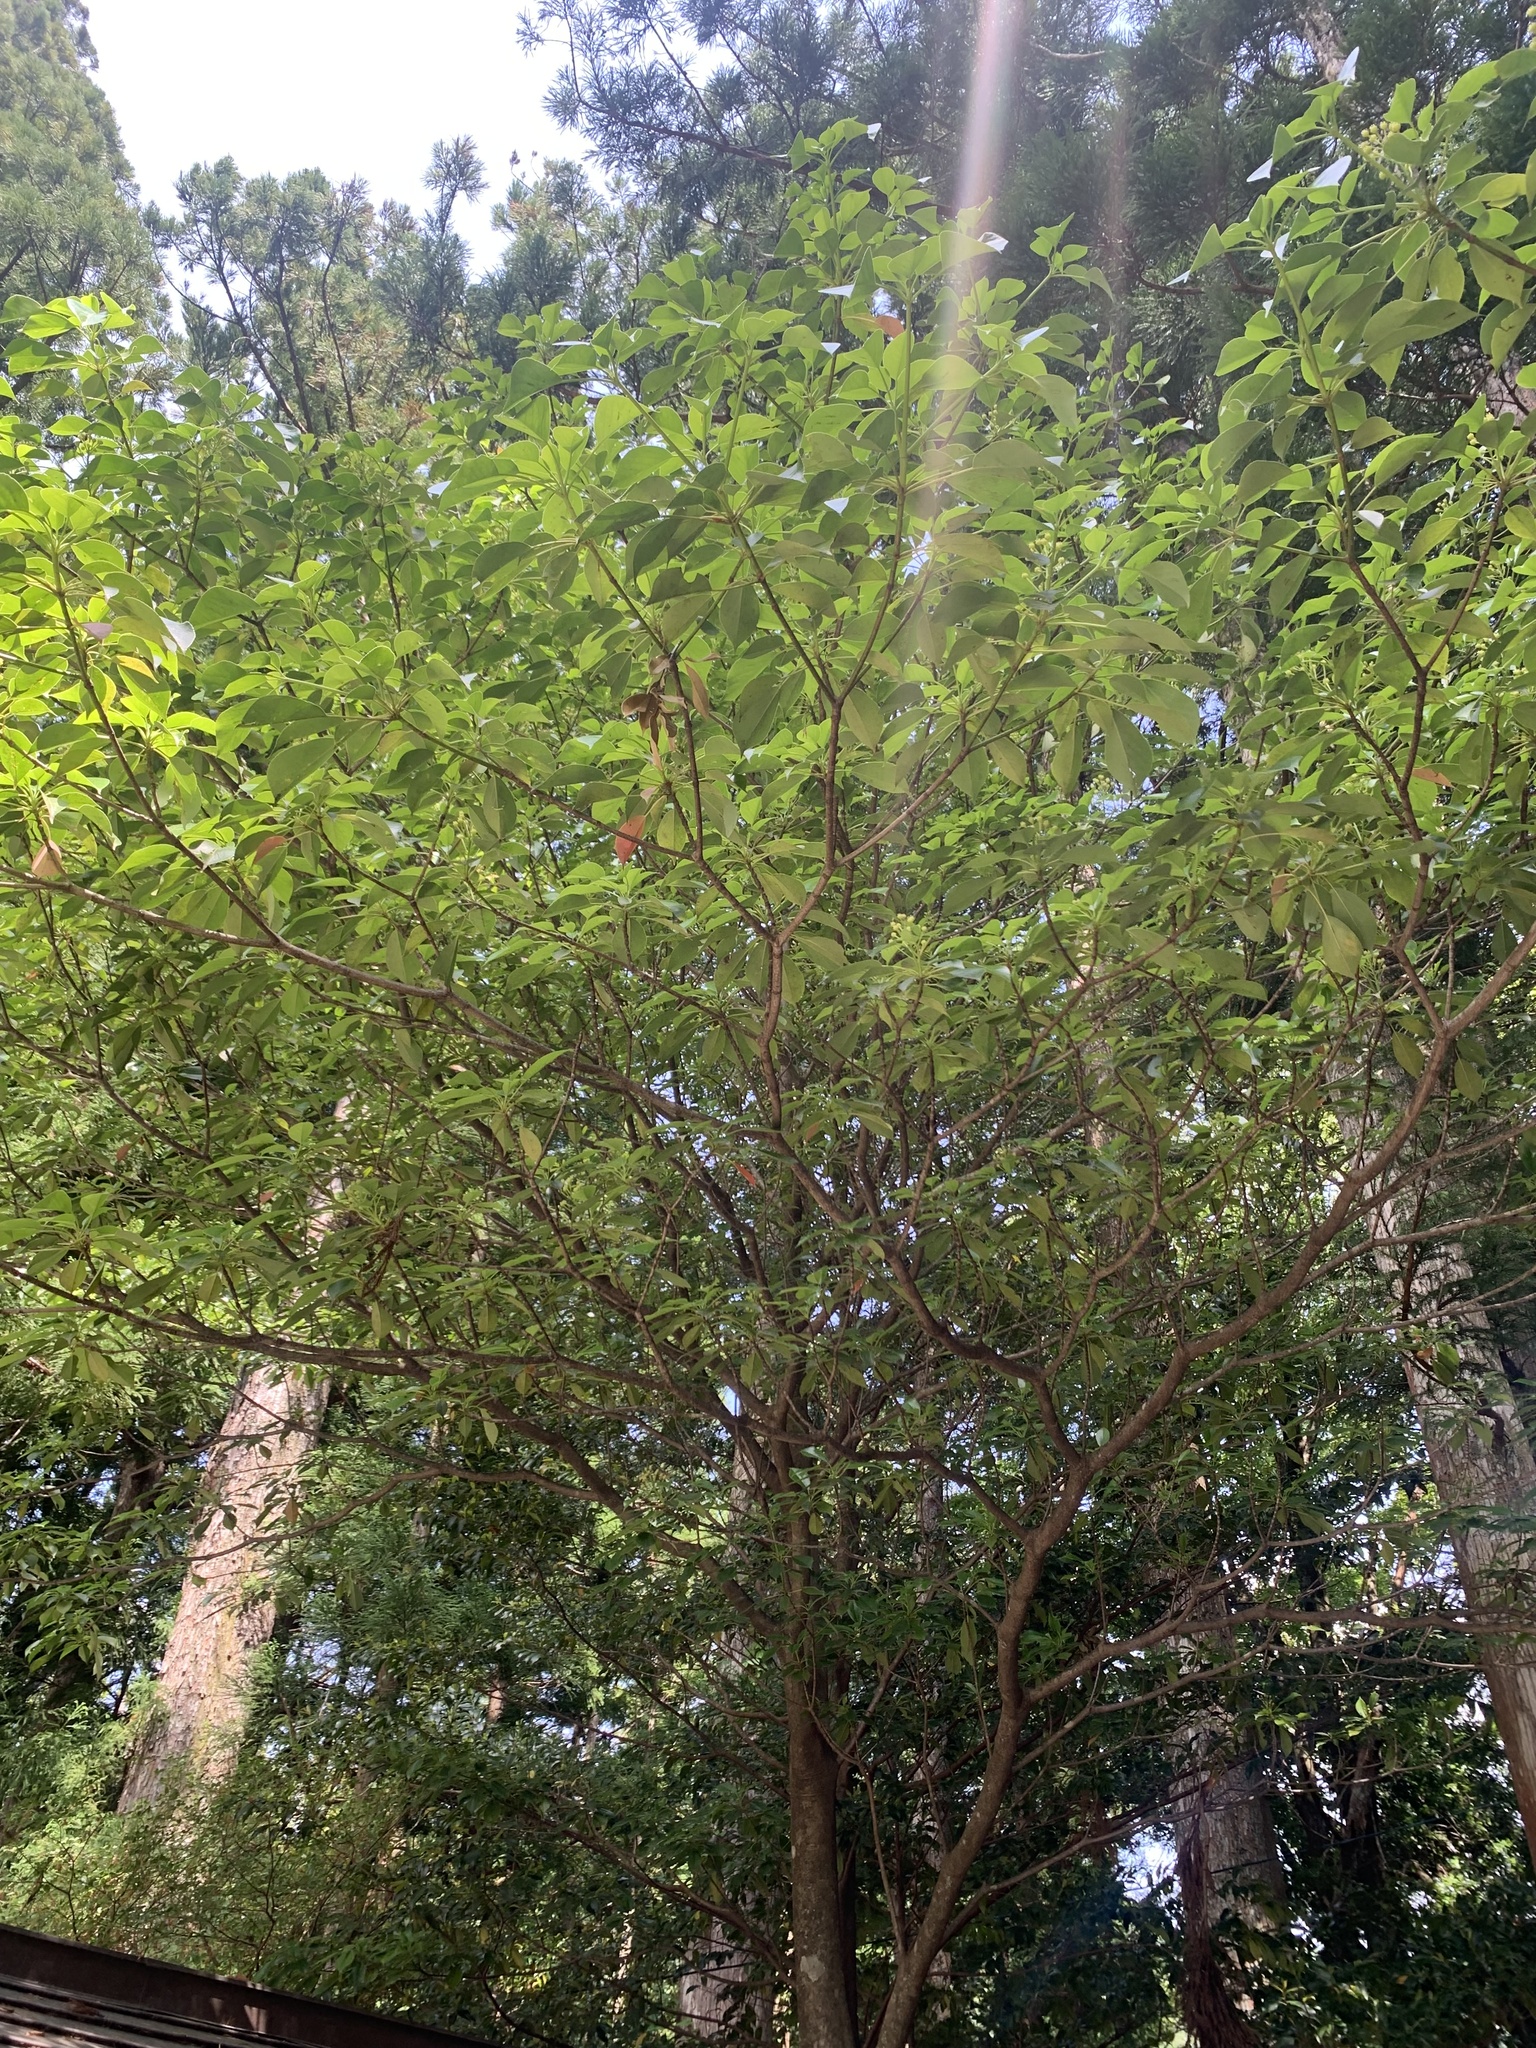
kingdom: Plantae
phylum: Tracheophyta
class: Magnoliopsida
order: Trochodendrales
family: Trochodendraceae
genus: Trochodendron
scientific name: Trochodendron aralioides
